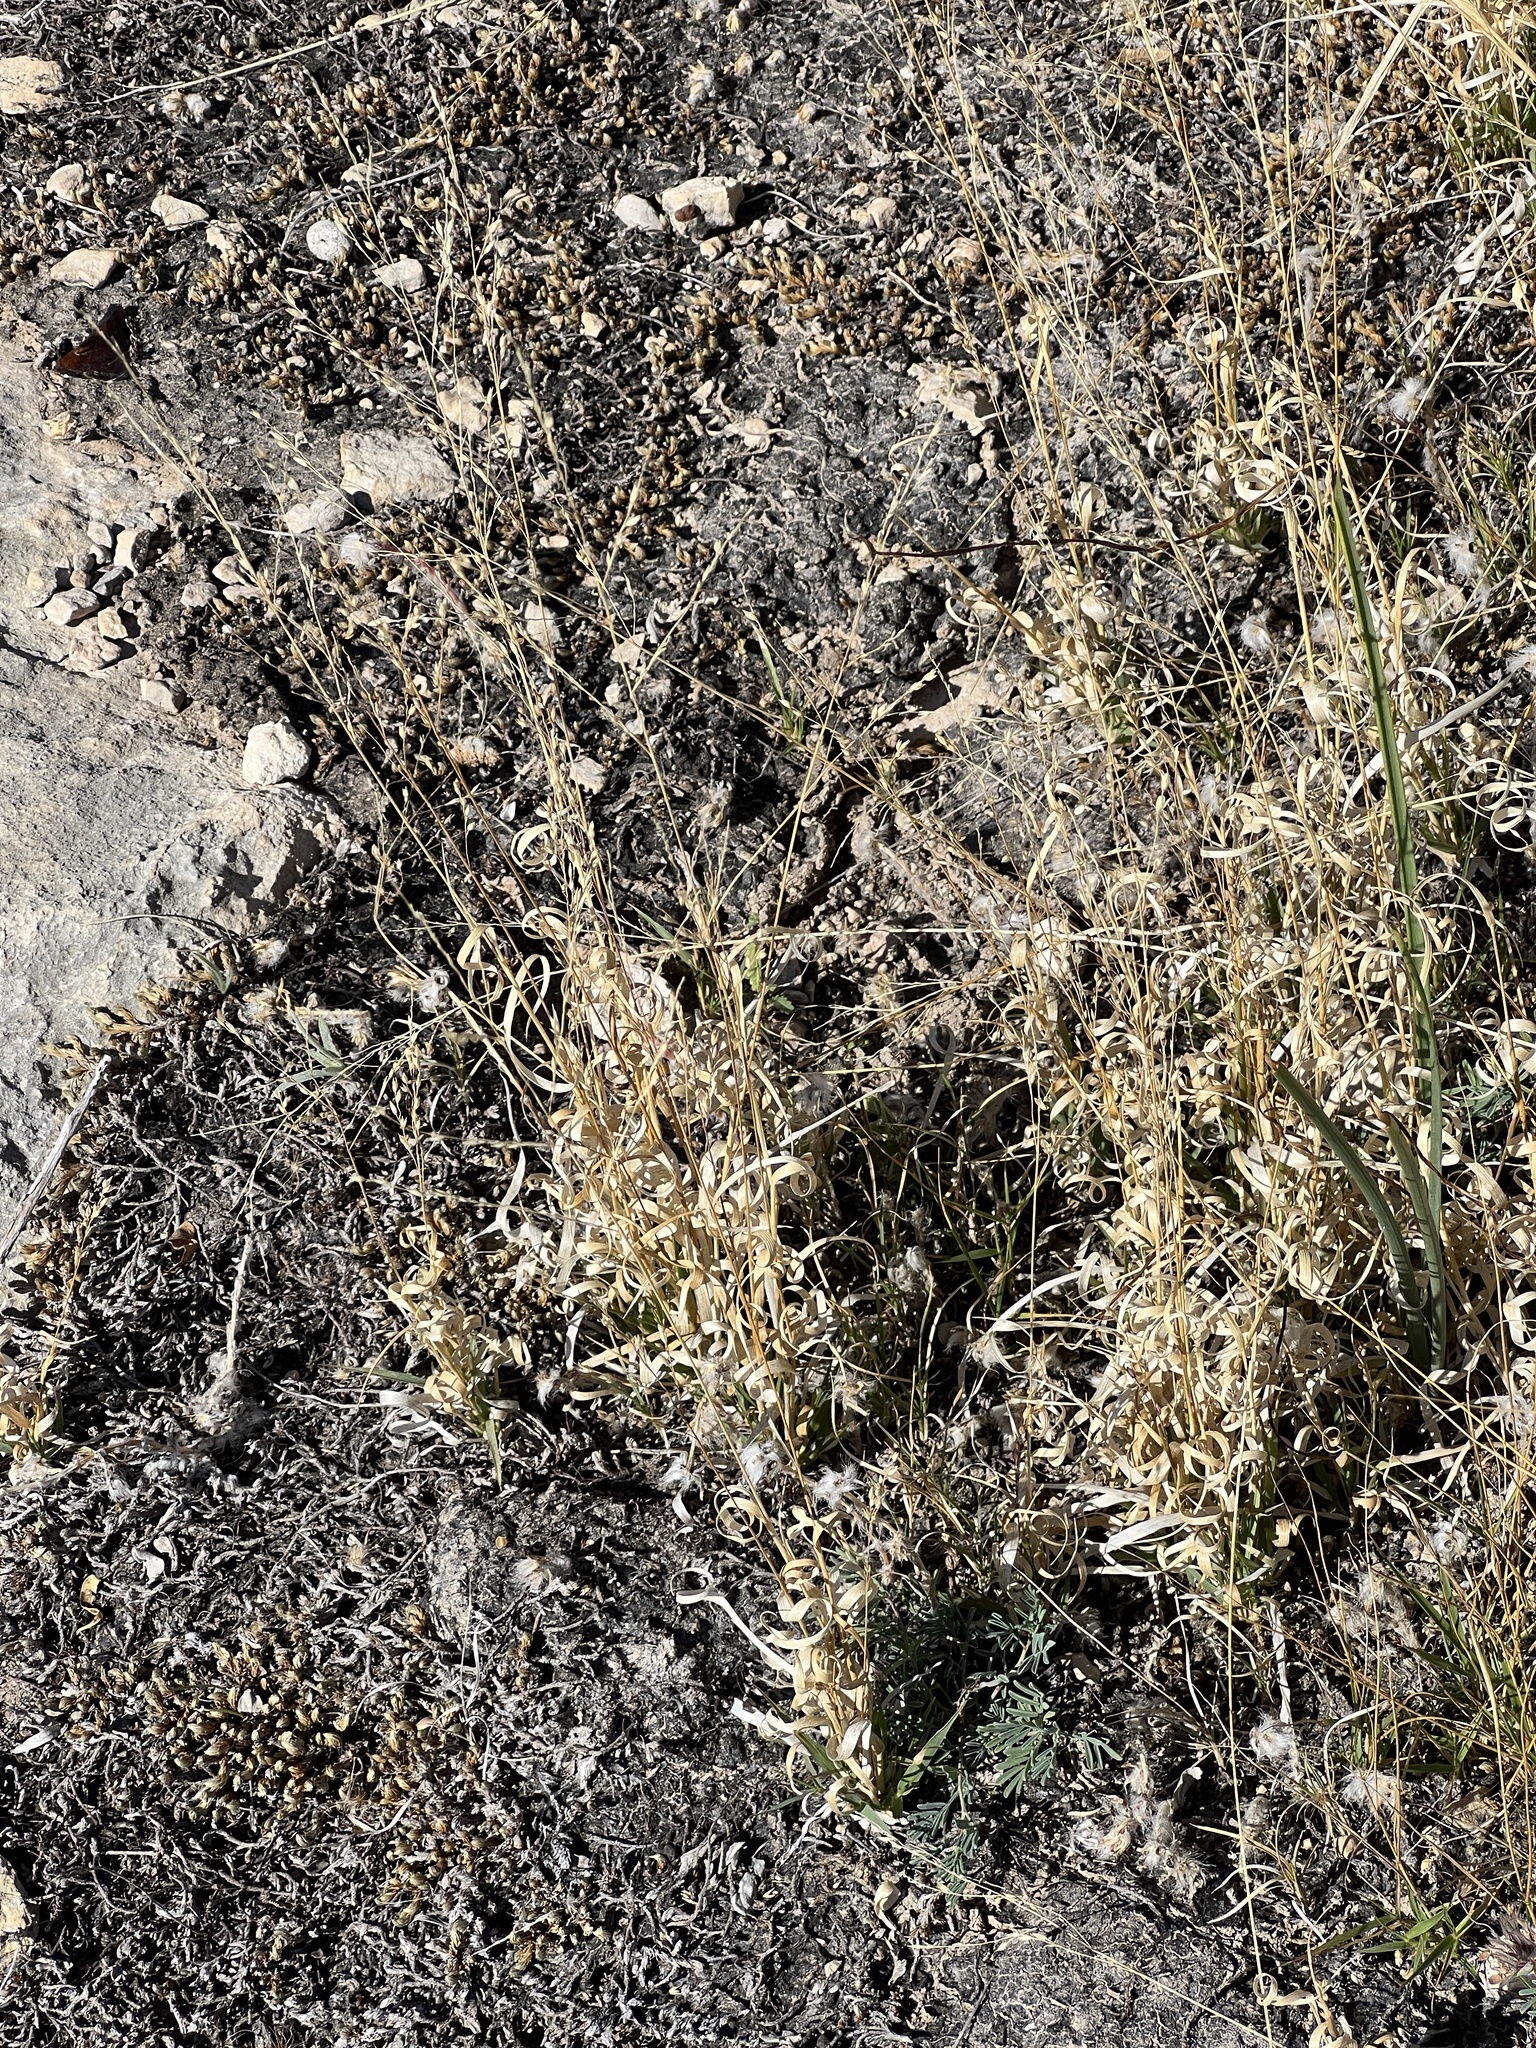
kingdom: Plantae
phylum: Tracheophyta
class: Liliopsida
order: Poales
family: Poaceae
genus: Panicum
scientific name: Panicum hallii
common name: Hall's witchgrass
